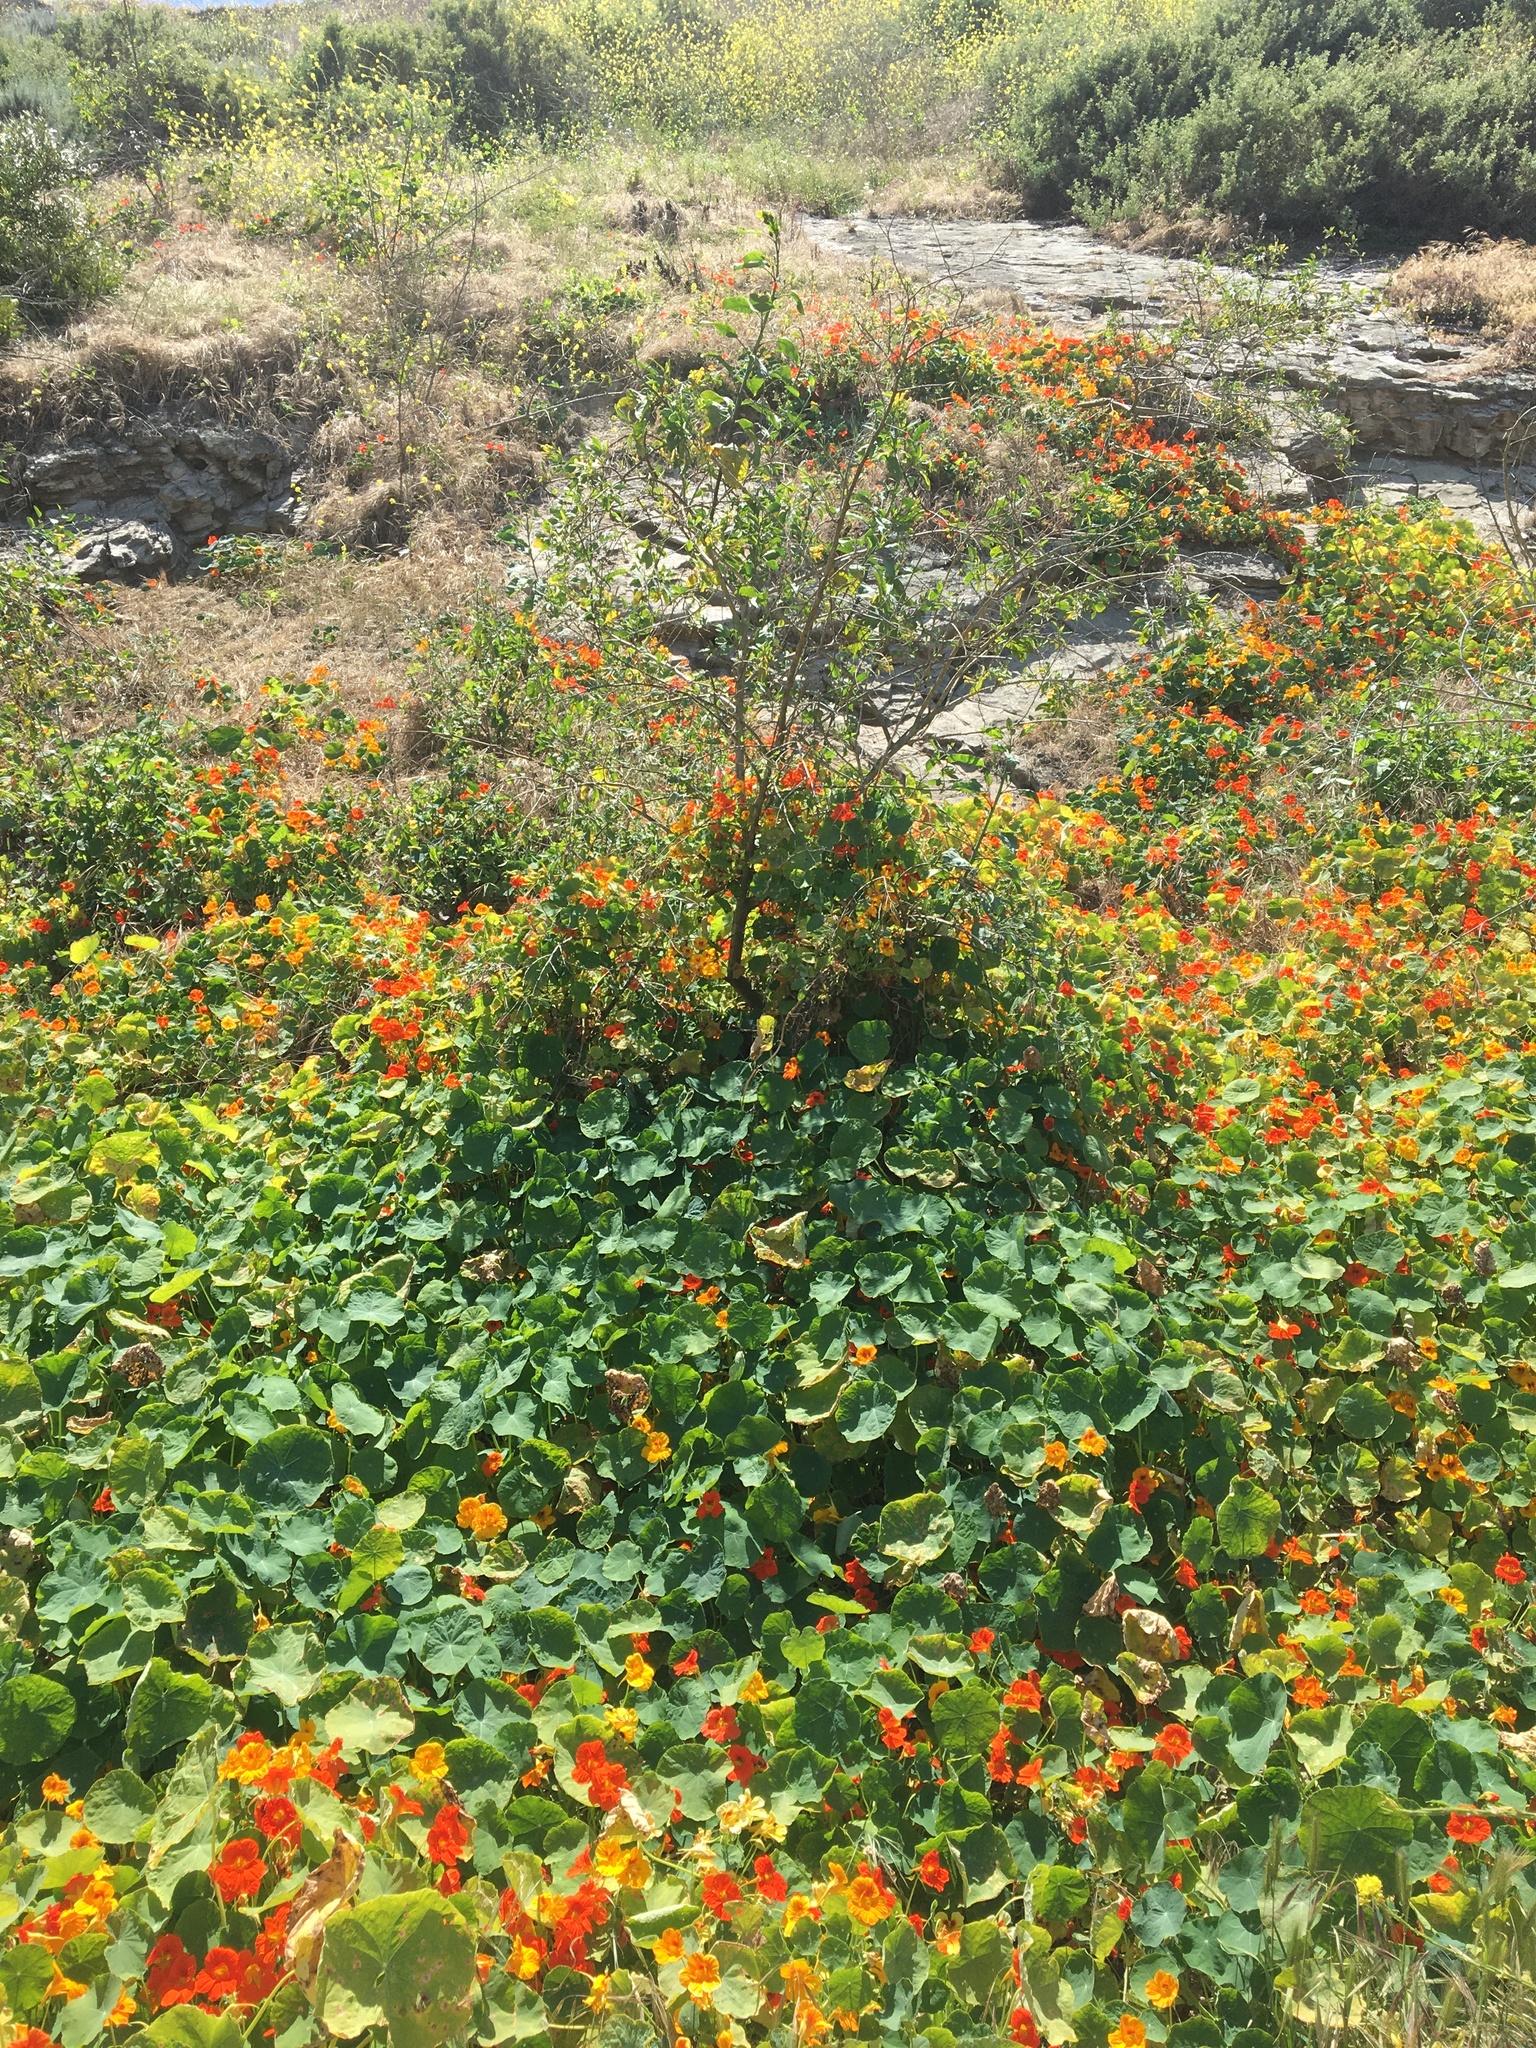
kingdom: Plantae
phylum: Tracheophyta
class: Magnoliopsida
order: Brassicales
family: Tropaeolaceae
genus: Tropaeolum
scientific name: Tropaeolum majus
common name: Nasturtium
